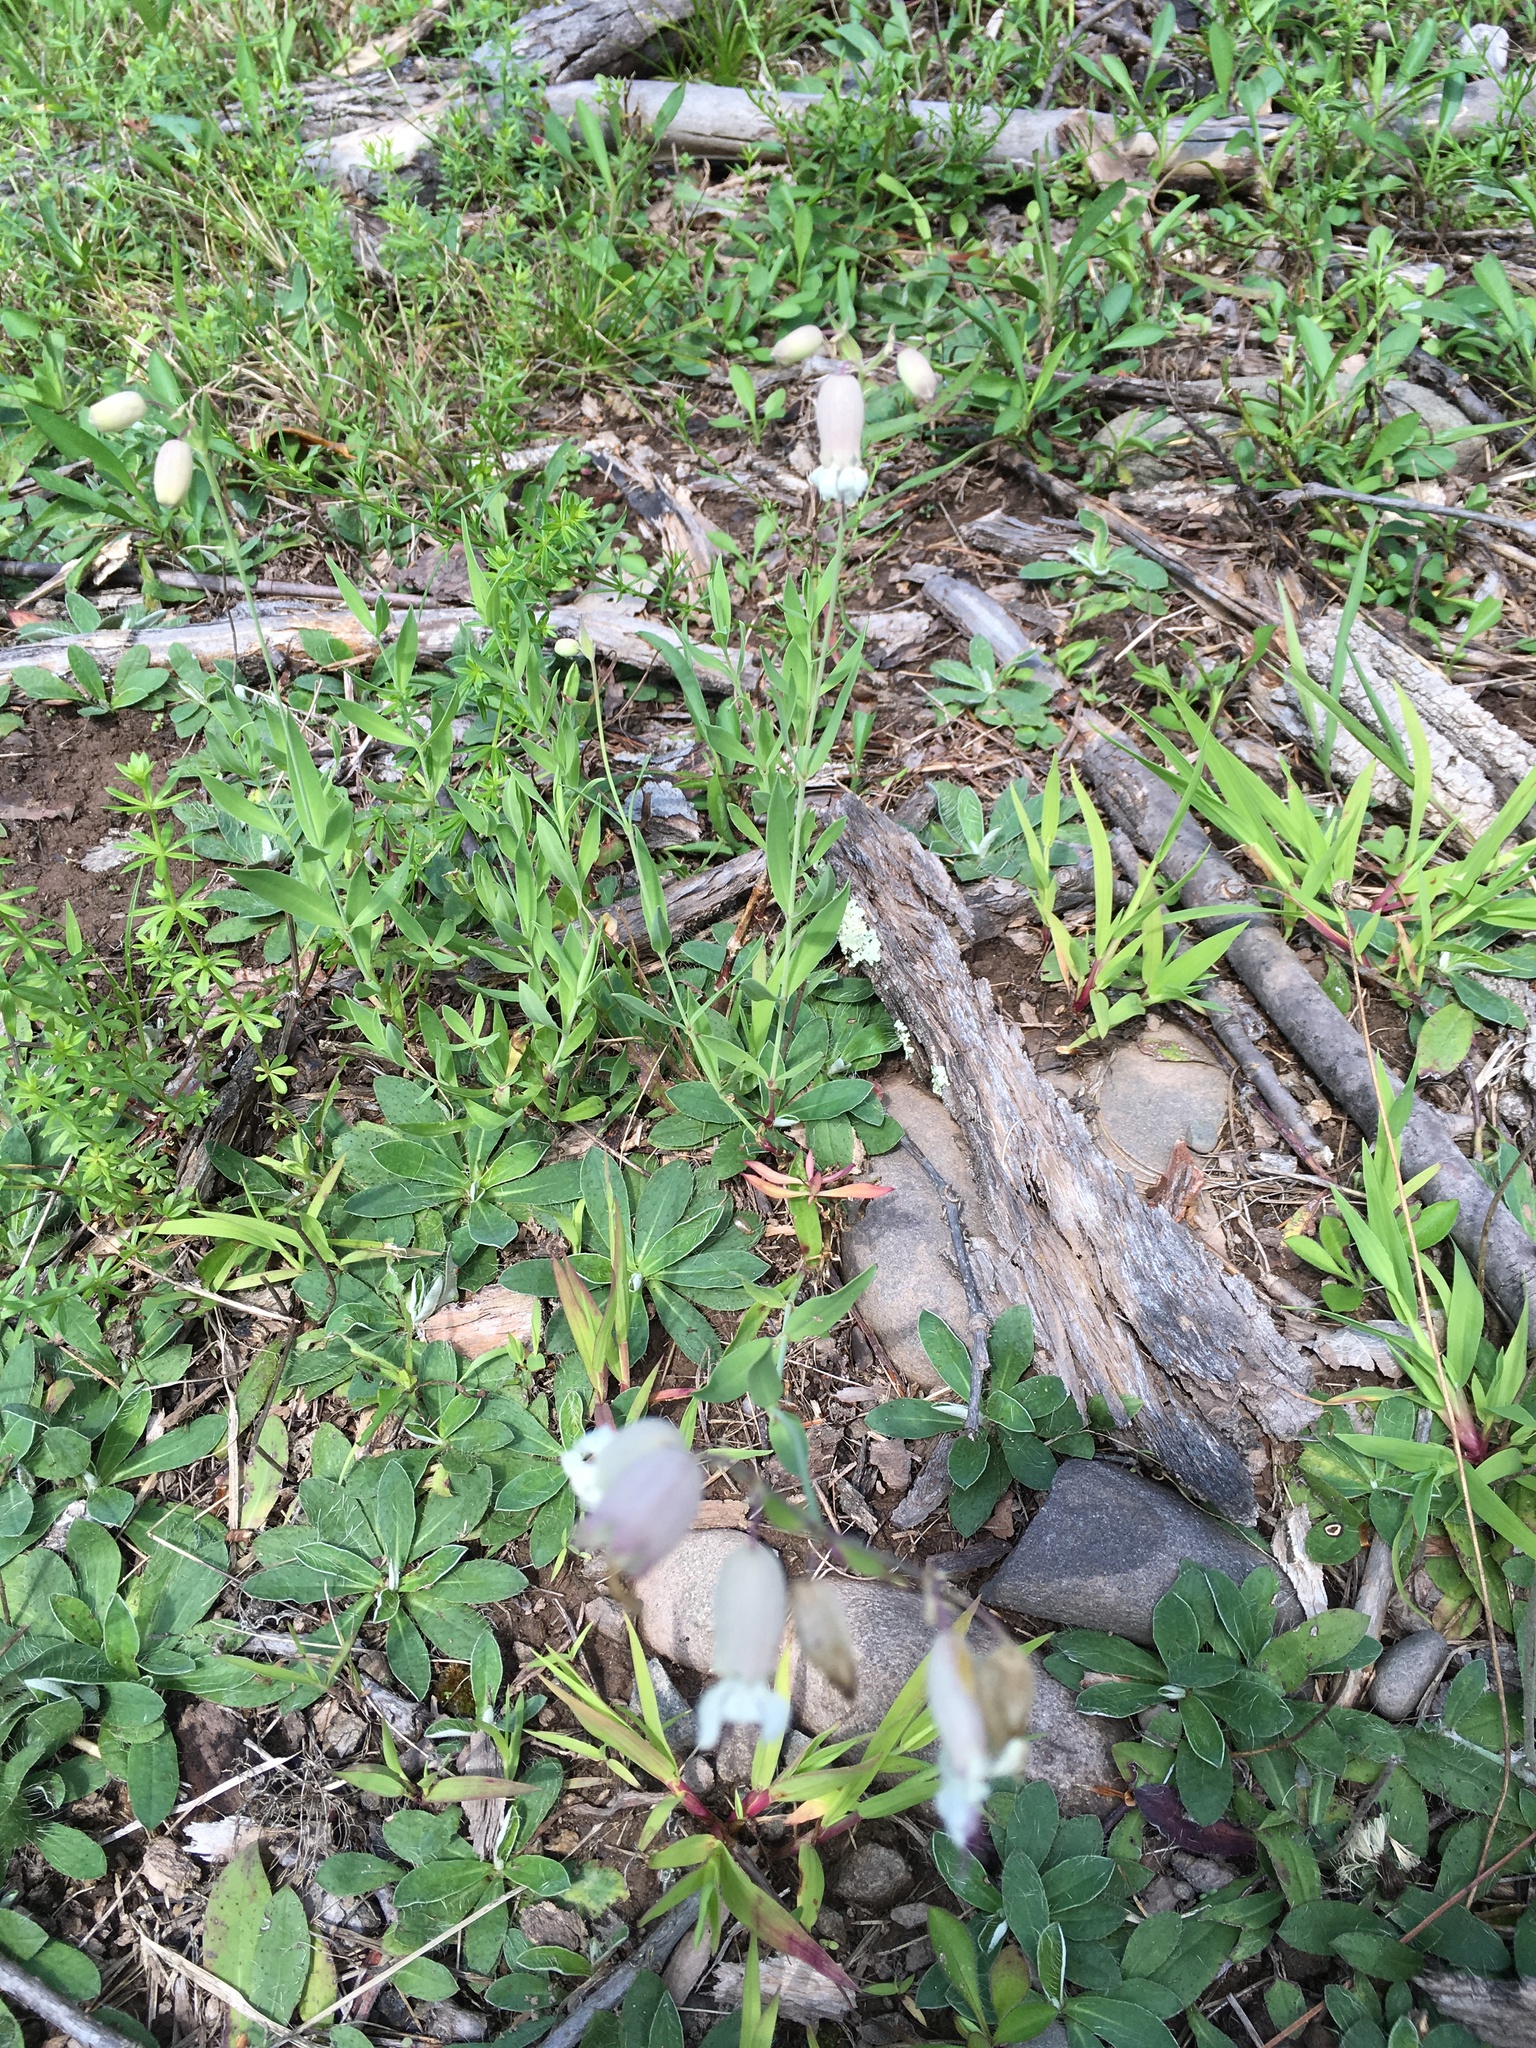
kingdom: Plantae
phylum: Tracheophyta
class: Magnoliopsida
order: Caryophyllales
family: Caryophyllaceae
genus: Silene
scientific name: Silene vulgaris
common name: Bladder campion
